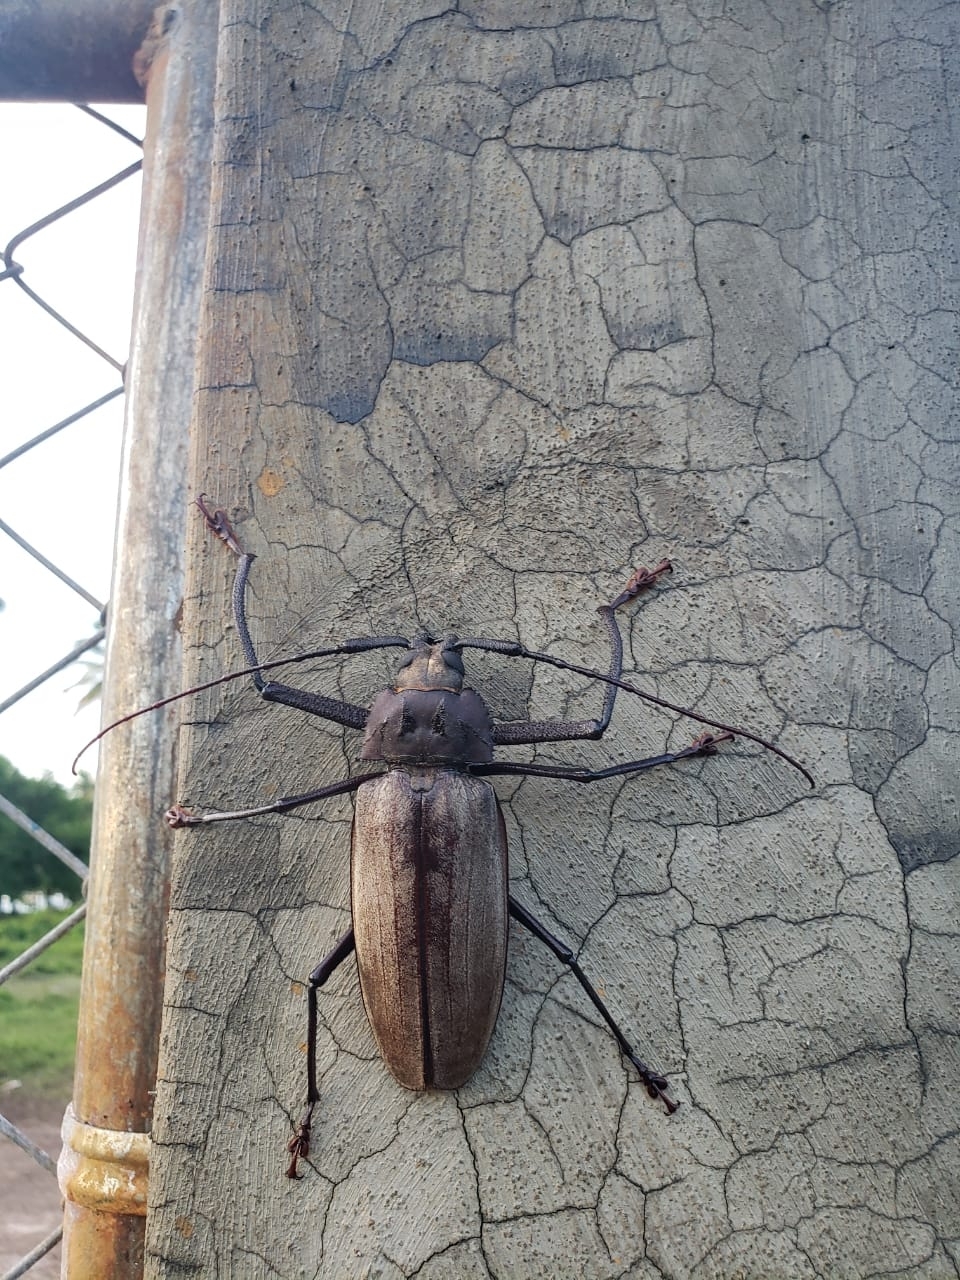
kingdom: Animalia
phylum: Arthropoda
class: Insecta
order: Coleoptera
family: Cerambycidae
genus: Xixuthrus
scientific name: Xixuthrus domingoensis
